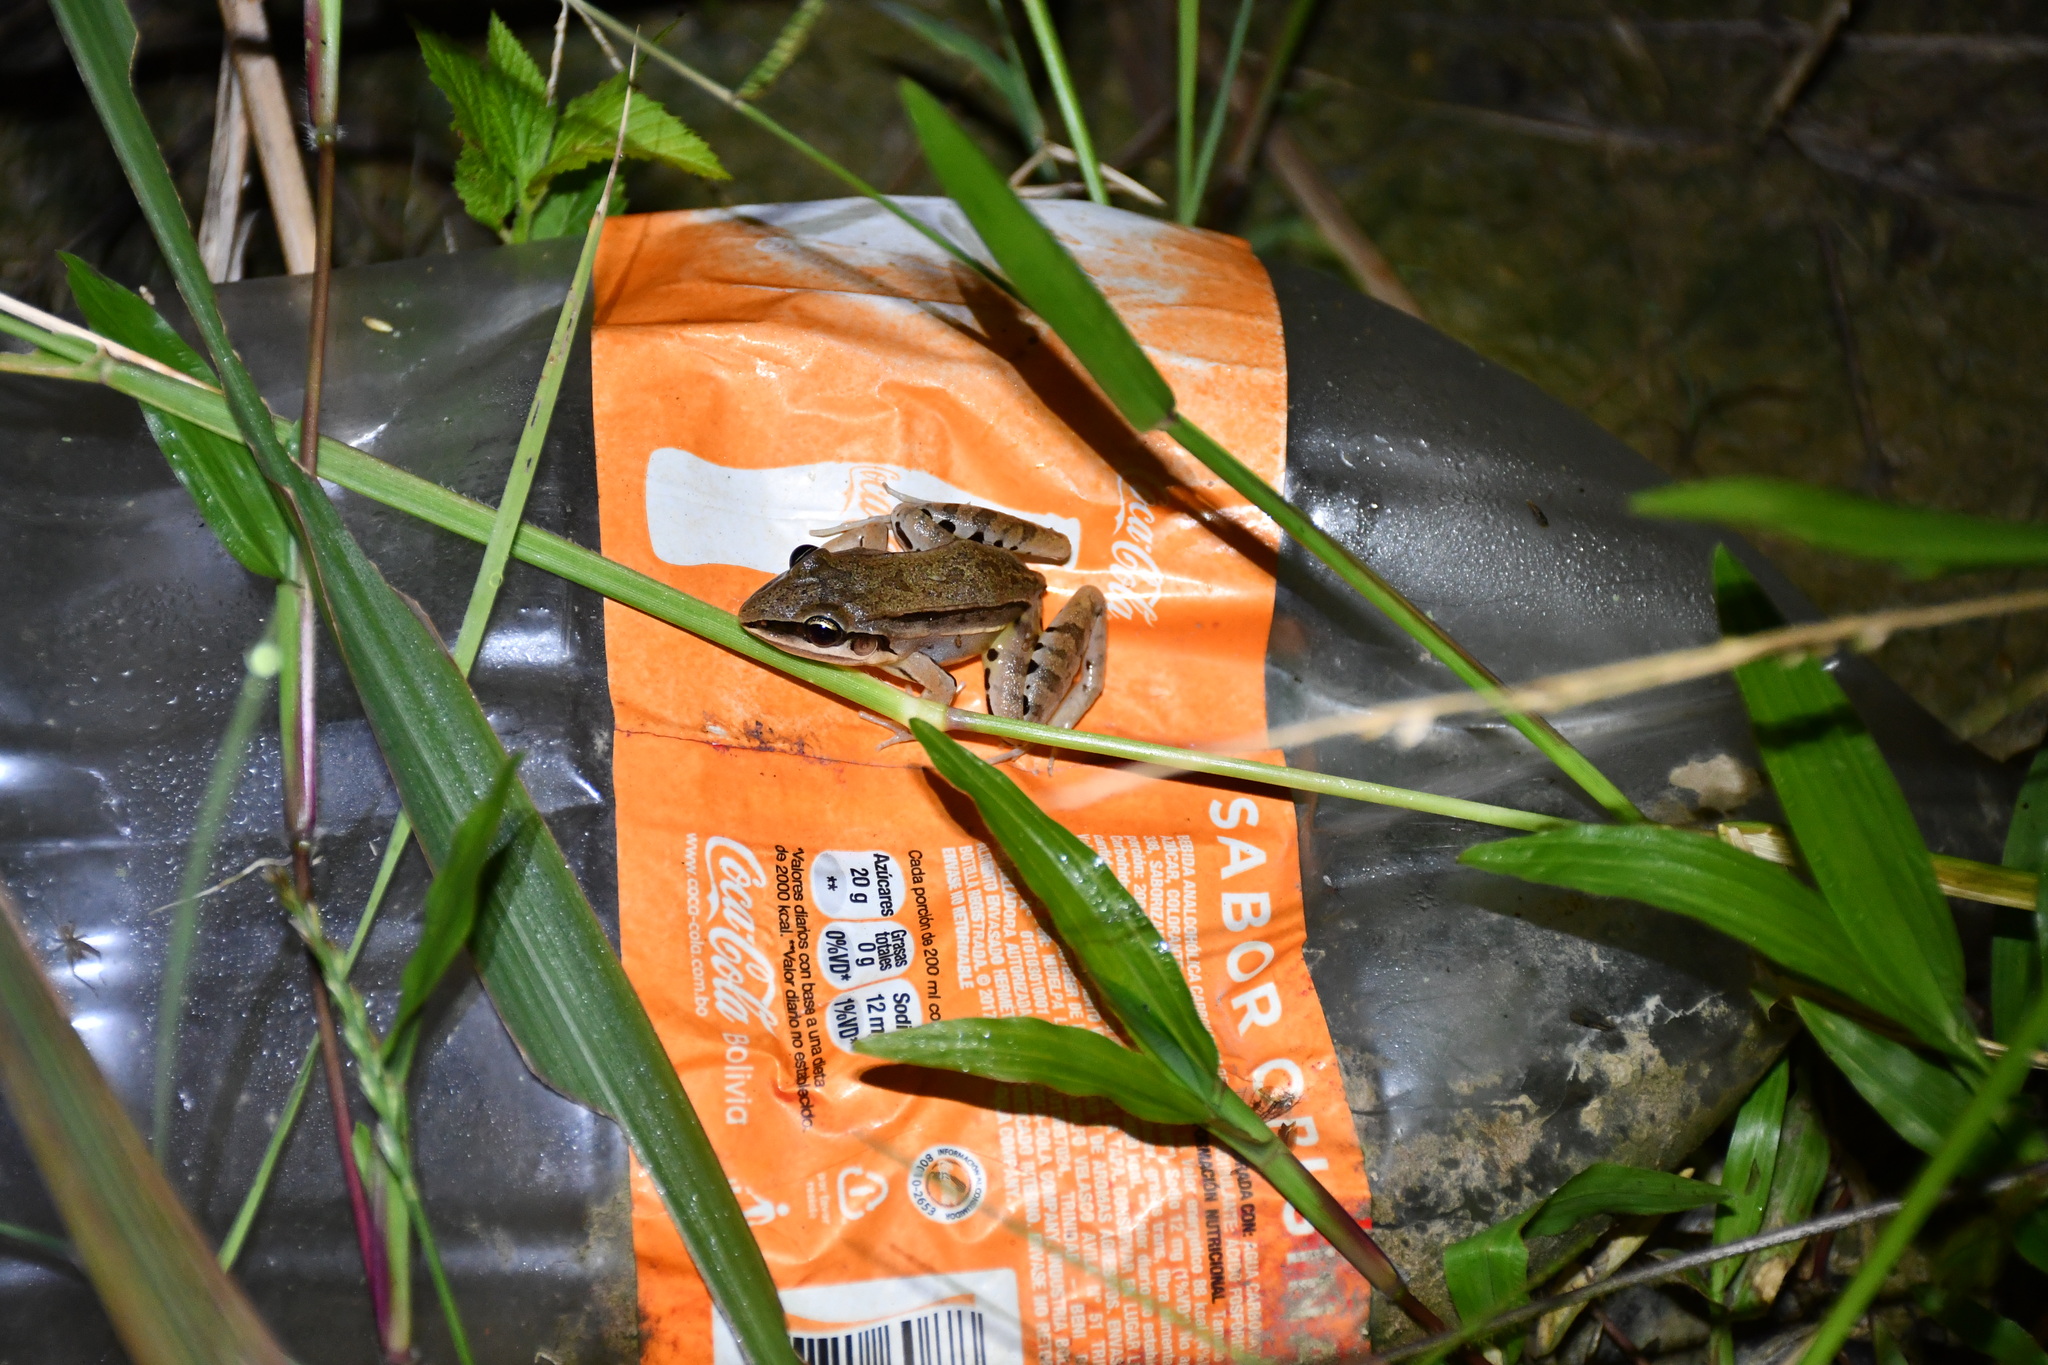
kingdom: Animalia
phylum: Chordata
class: Amphibia
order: Anura
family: Leptodactylidae
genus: Leptodactylus
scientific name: Leptodactylus elenae
